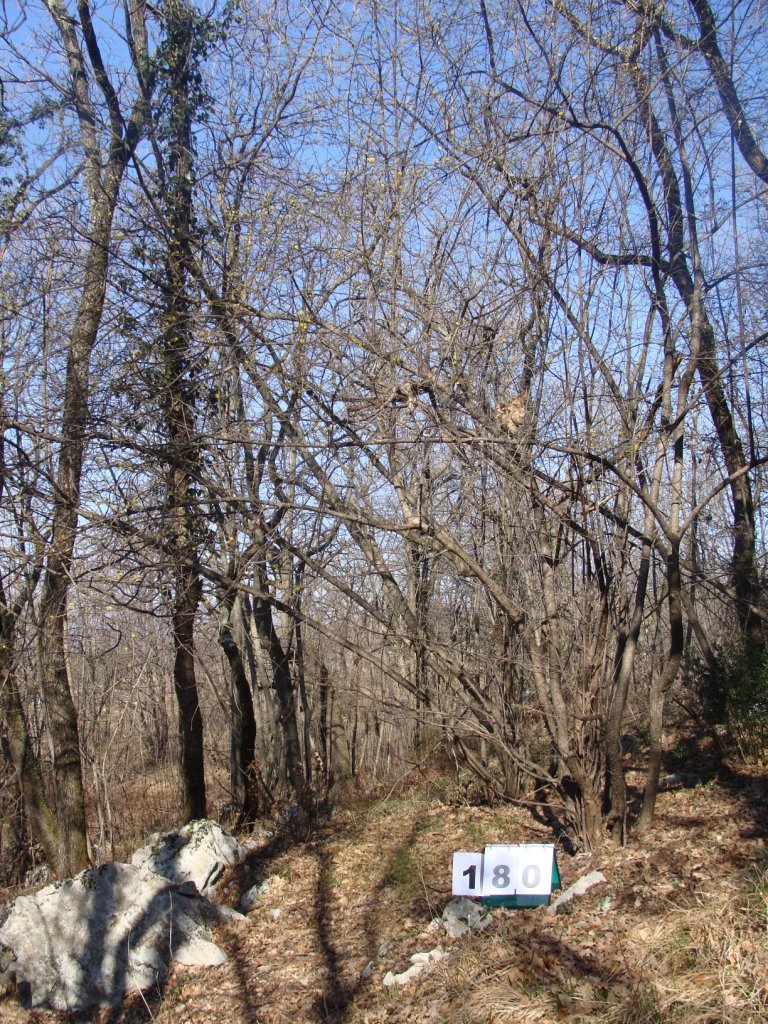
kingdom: Plantae
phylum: Tracheophyta
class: Magnoliopsida
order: Cornales
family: Cornaceae
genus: Cornus
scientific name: Cornus mas
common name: Cornelian-cherry
